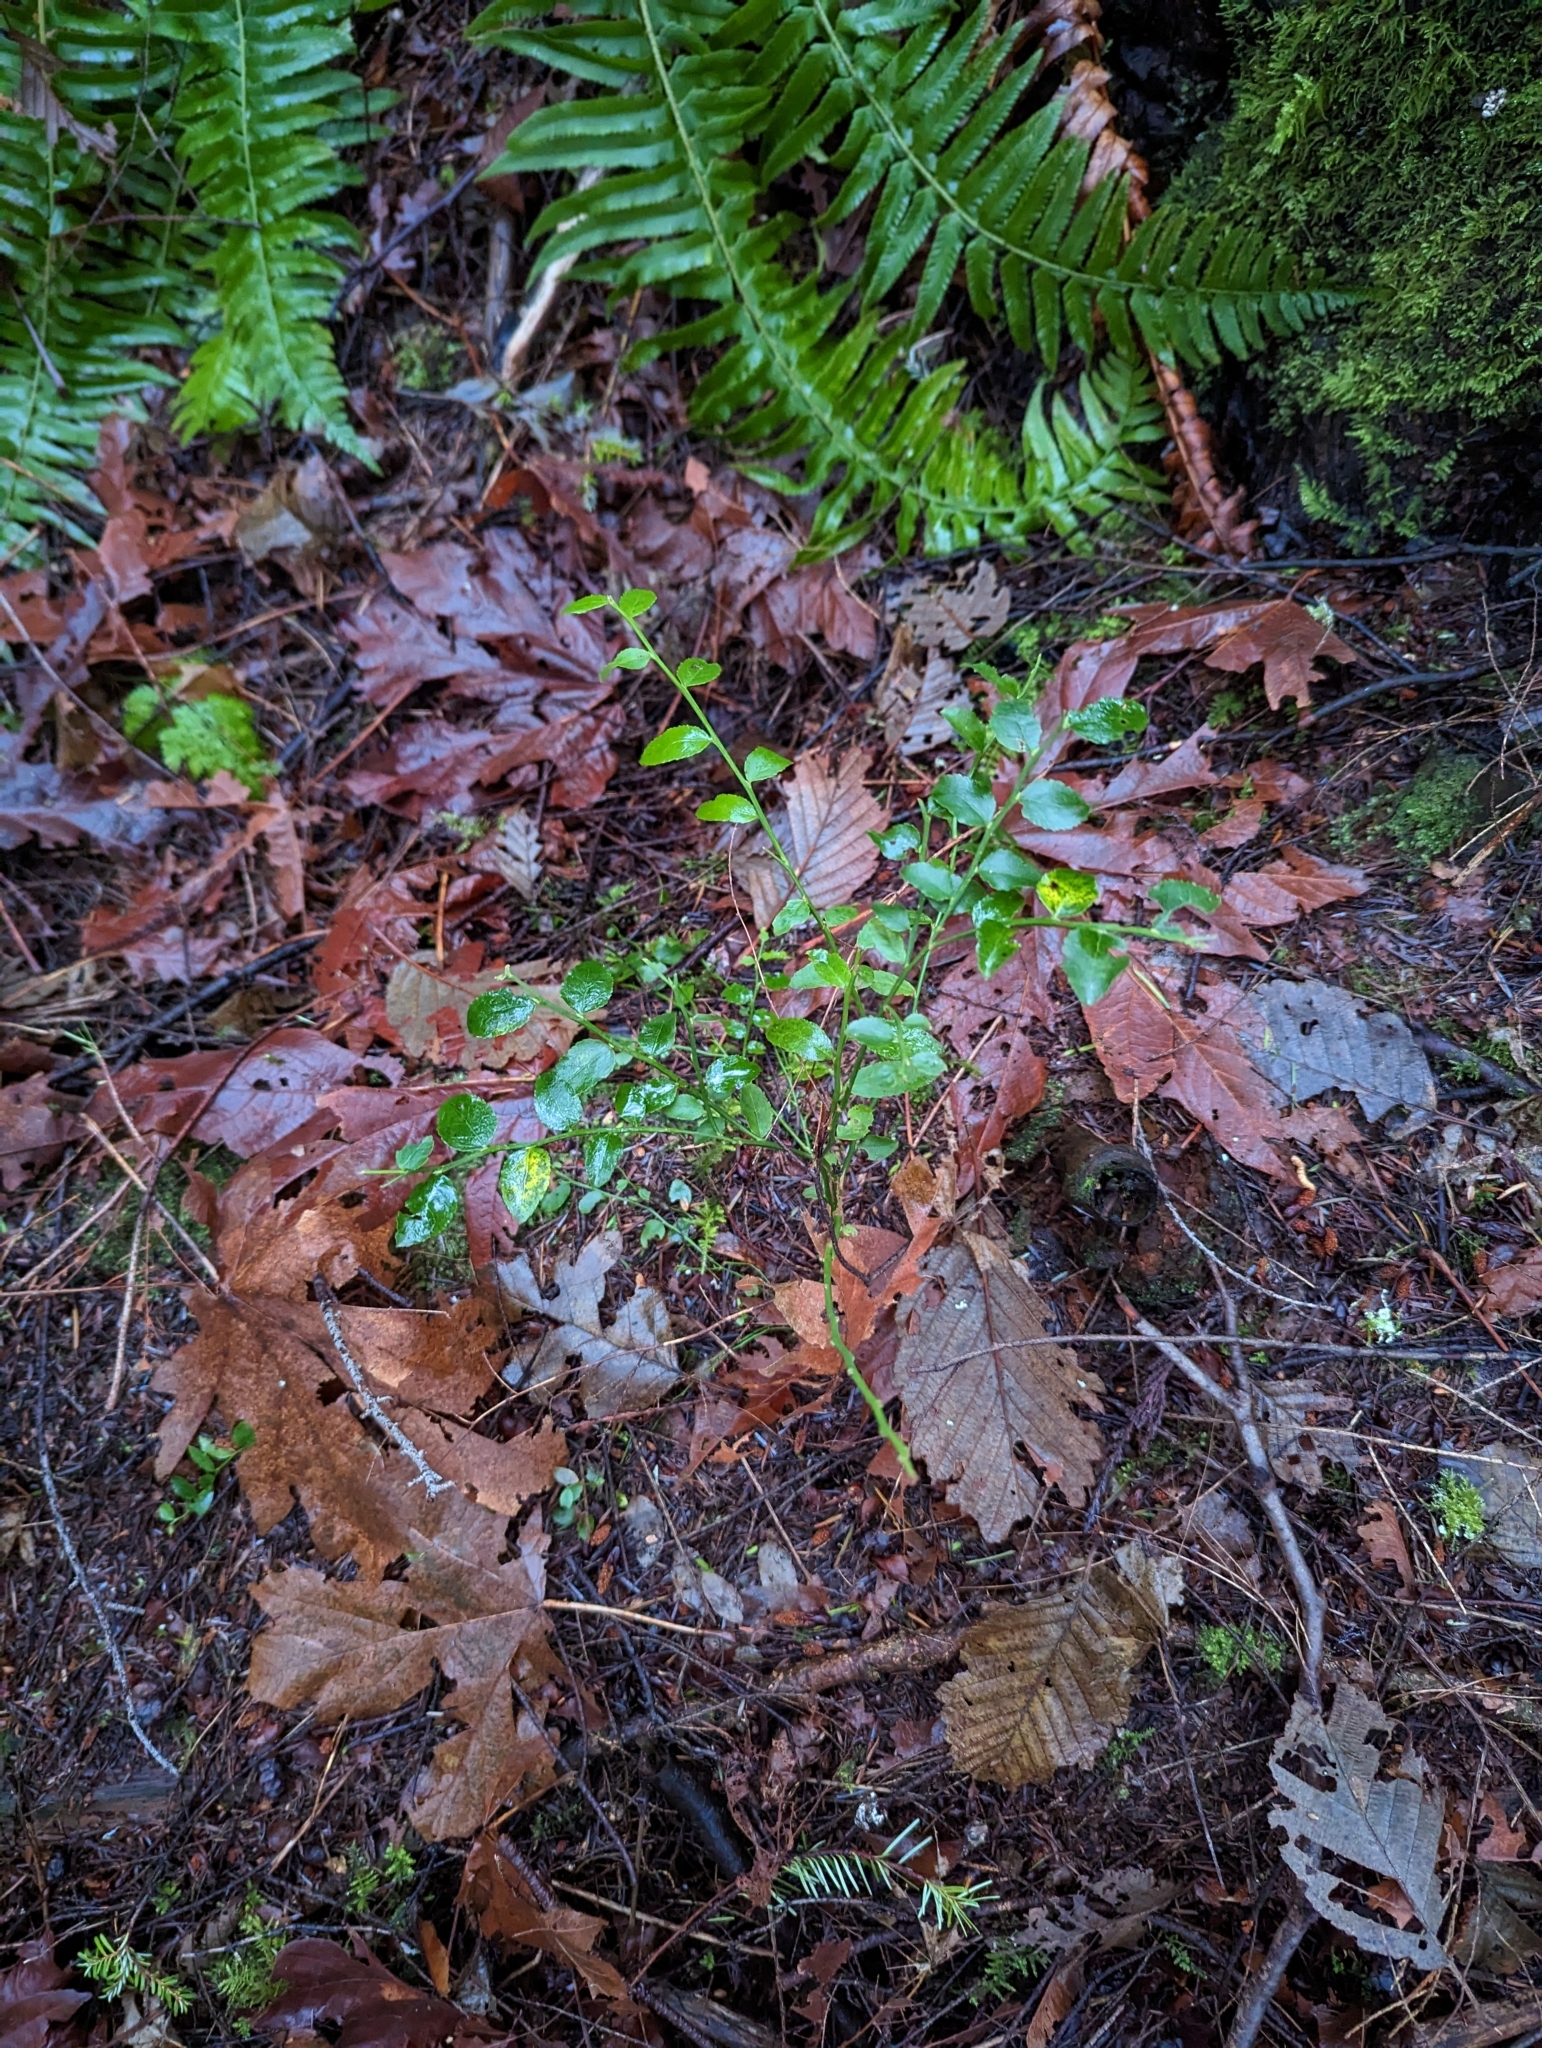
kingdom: Plantae
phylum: Tracheophyta
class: Magnoliopsida
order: Ericales
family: Ericaceae
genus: Vaccinium
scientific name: Vaccinium parvifolium
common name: Red-huckleberry
